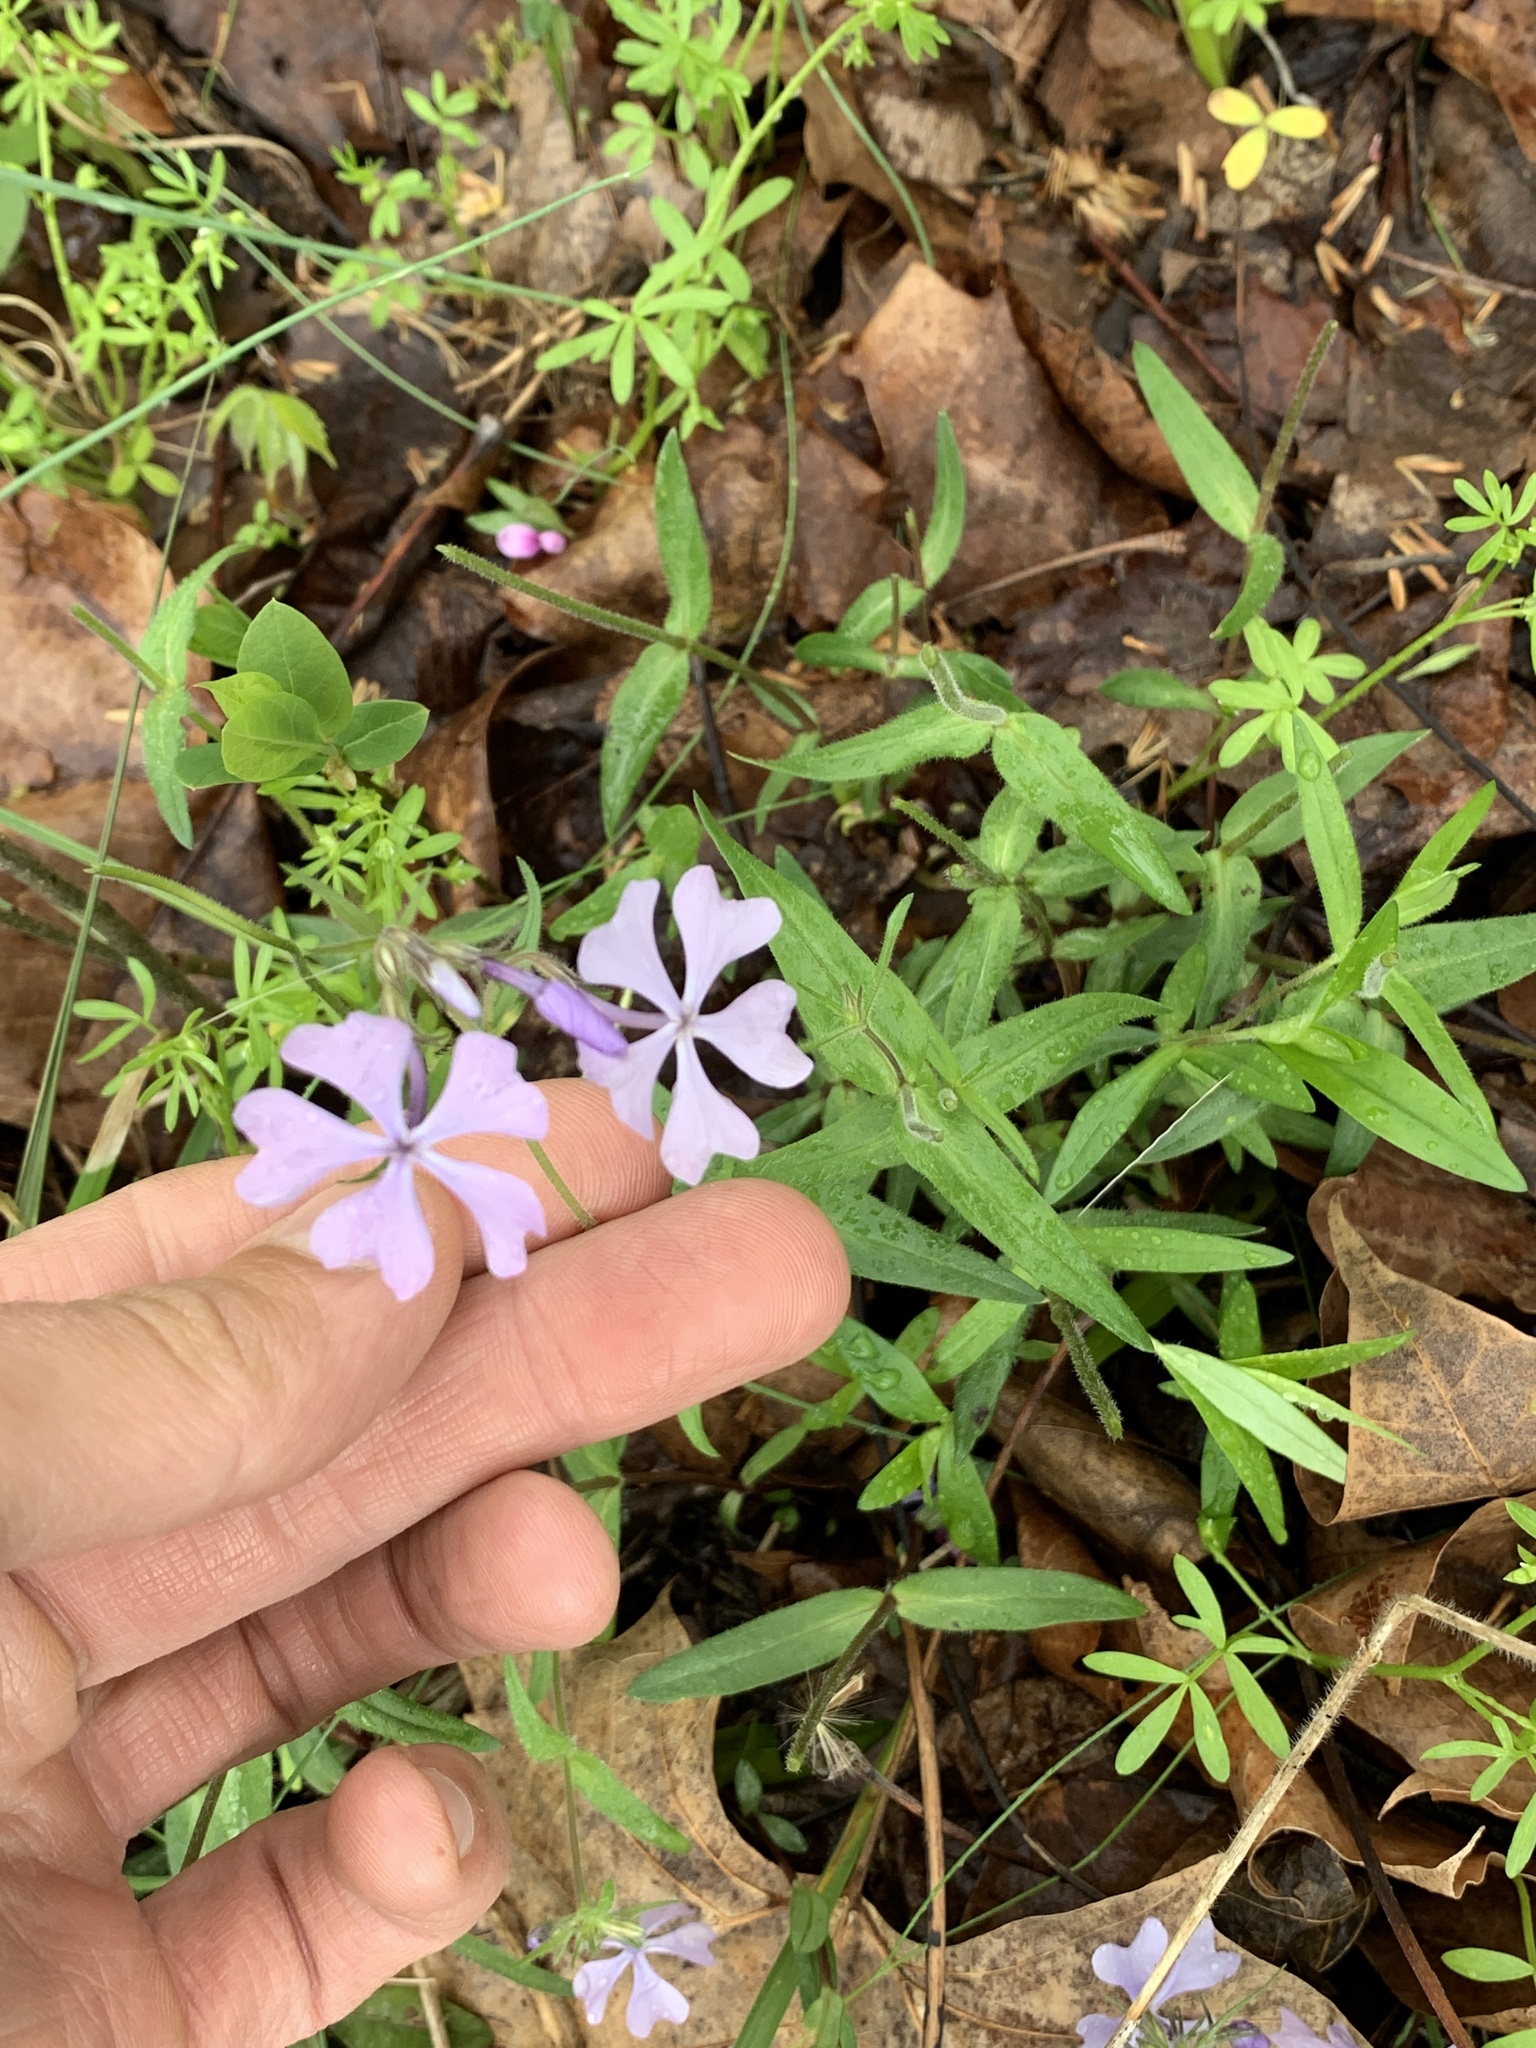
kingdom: Plantae
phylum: Tracheophyta
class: Magnoliopsida
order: Ericales
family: Polemoniaceae
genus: Phlox
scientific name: Phlox divaricata
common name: Blue phlox
